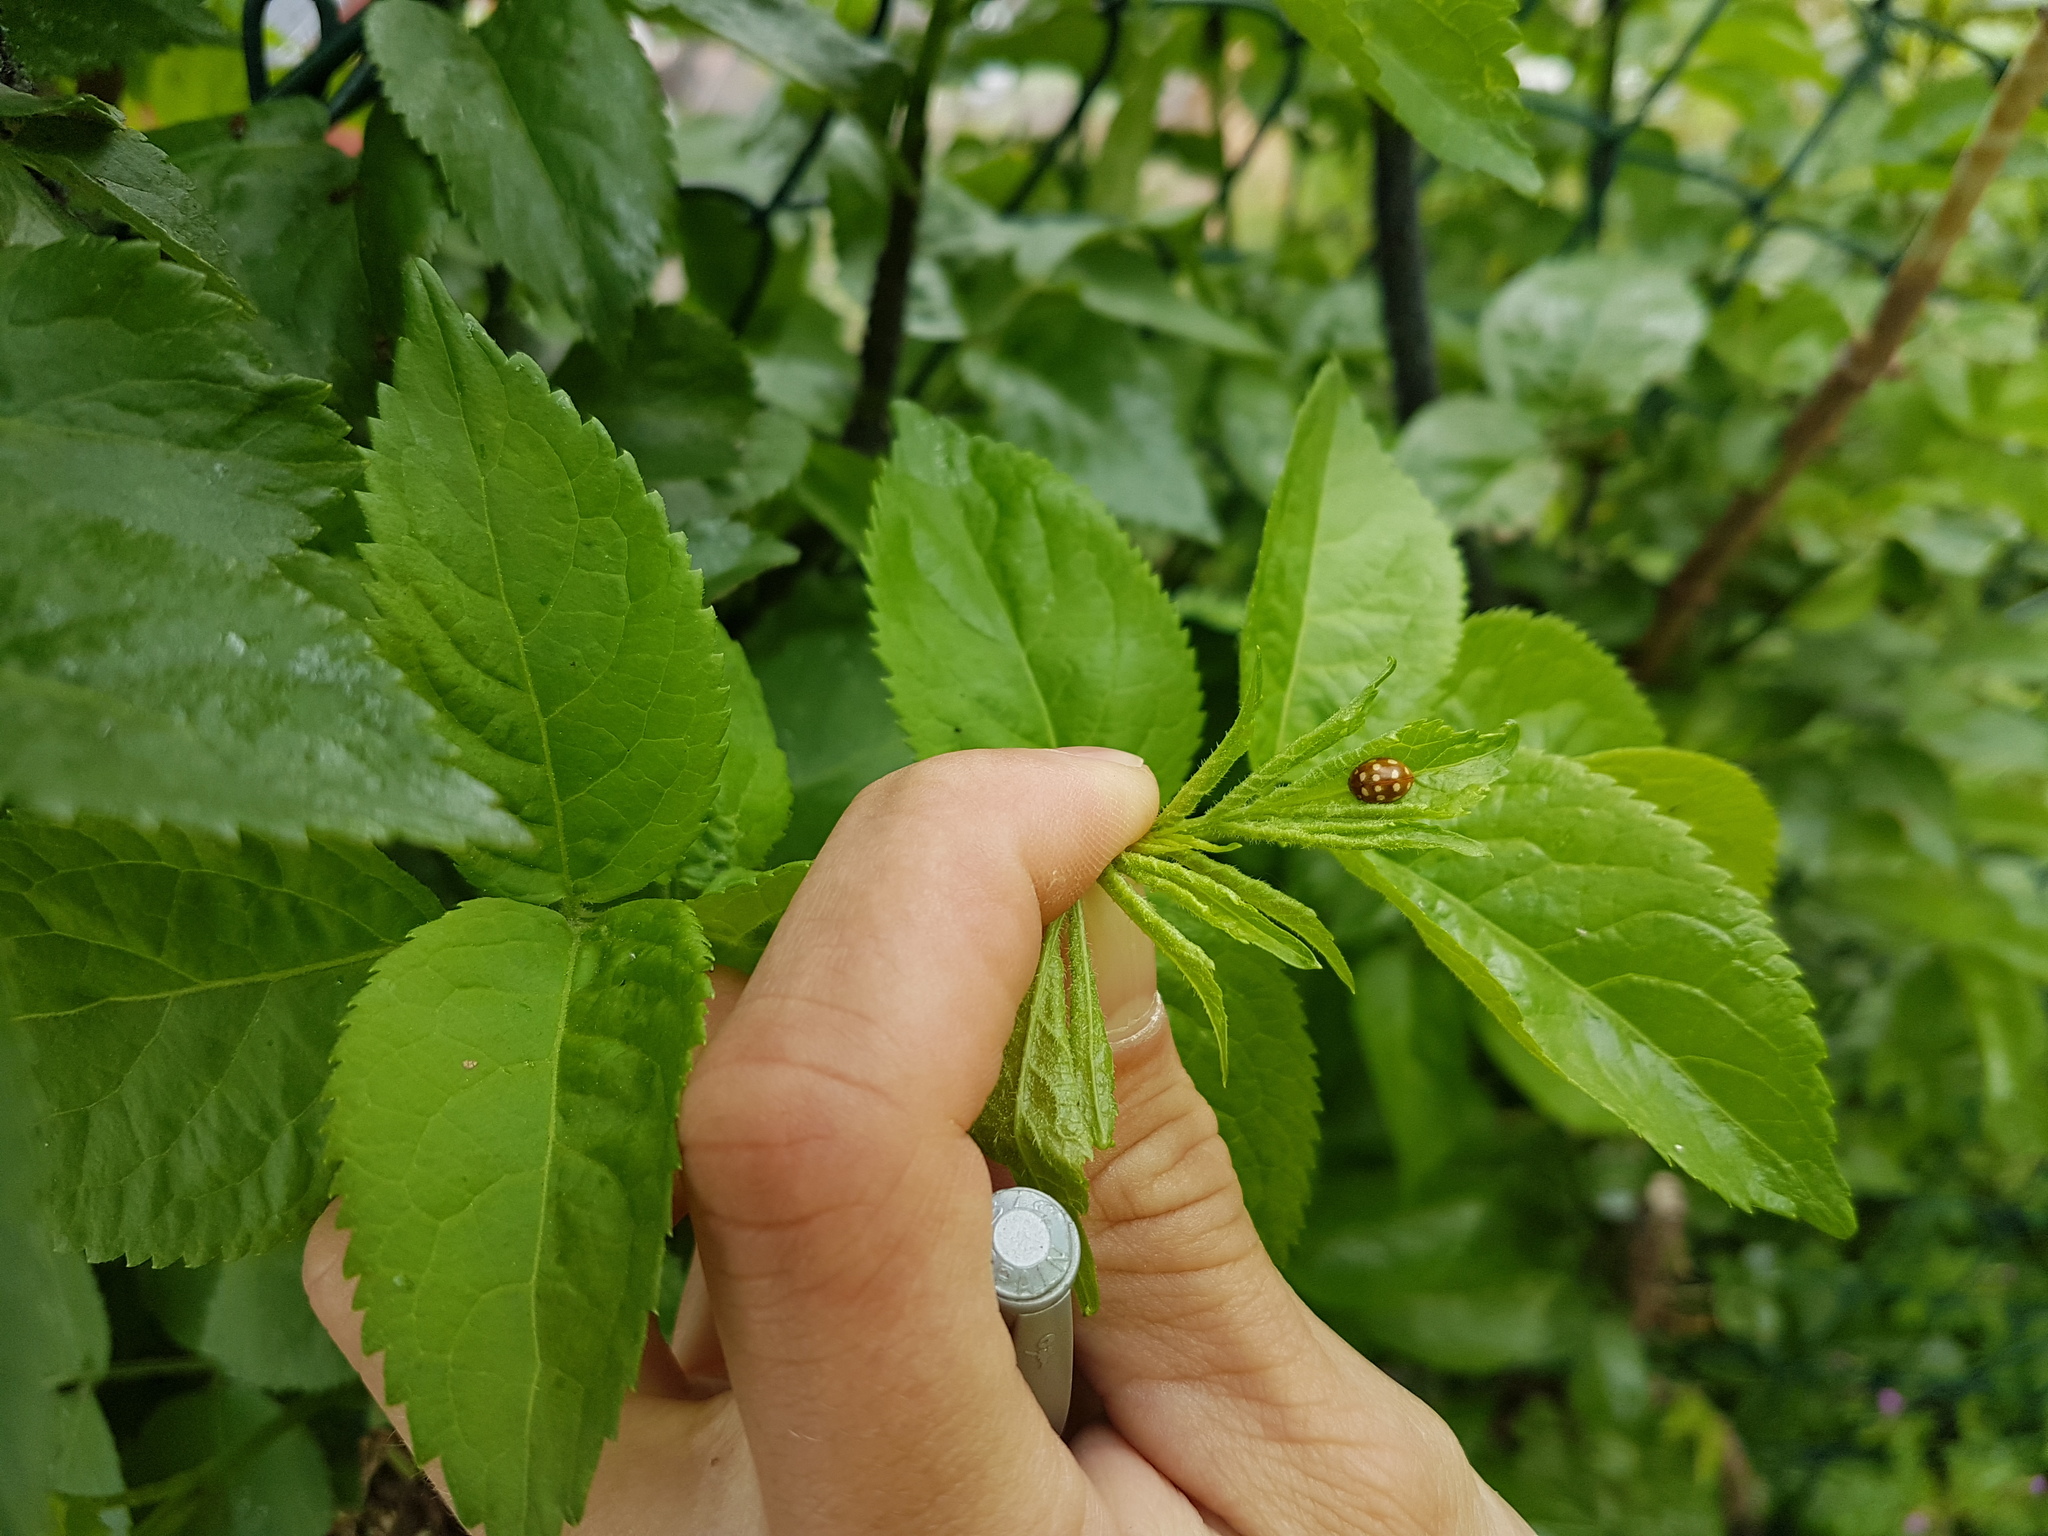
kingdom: Animalia
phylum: Arthropoda
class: Insecta
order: Coleoptera
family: Coccinellidae
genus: Calvia
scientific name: Calvia quatuordecimguttata
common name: Cream-spot ladybird
